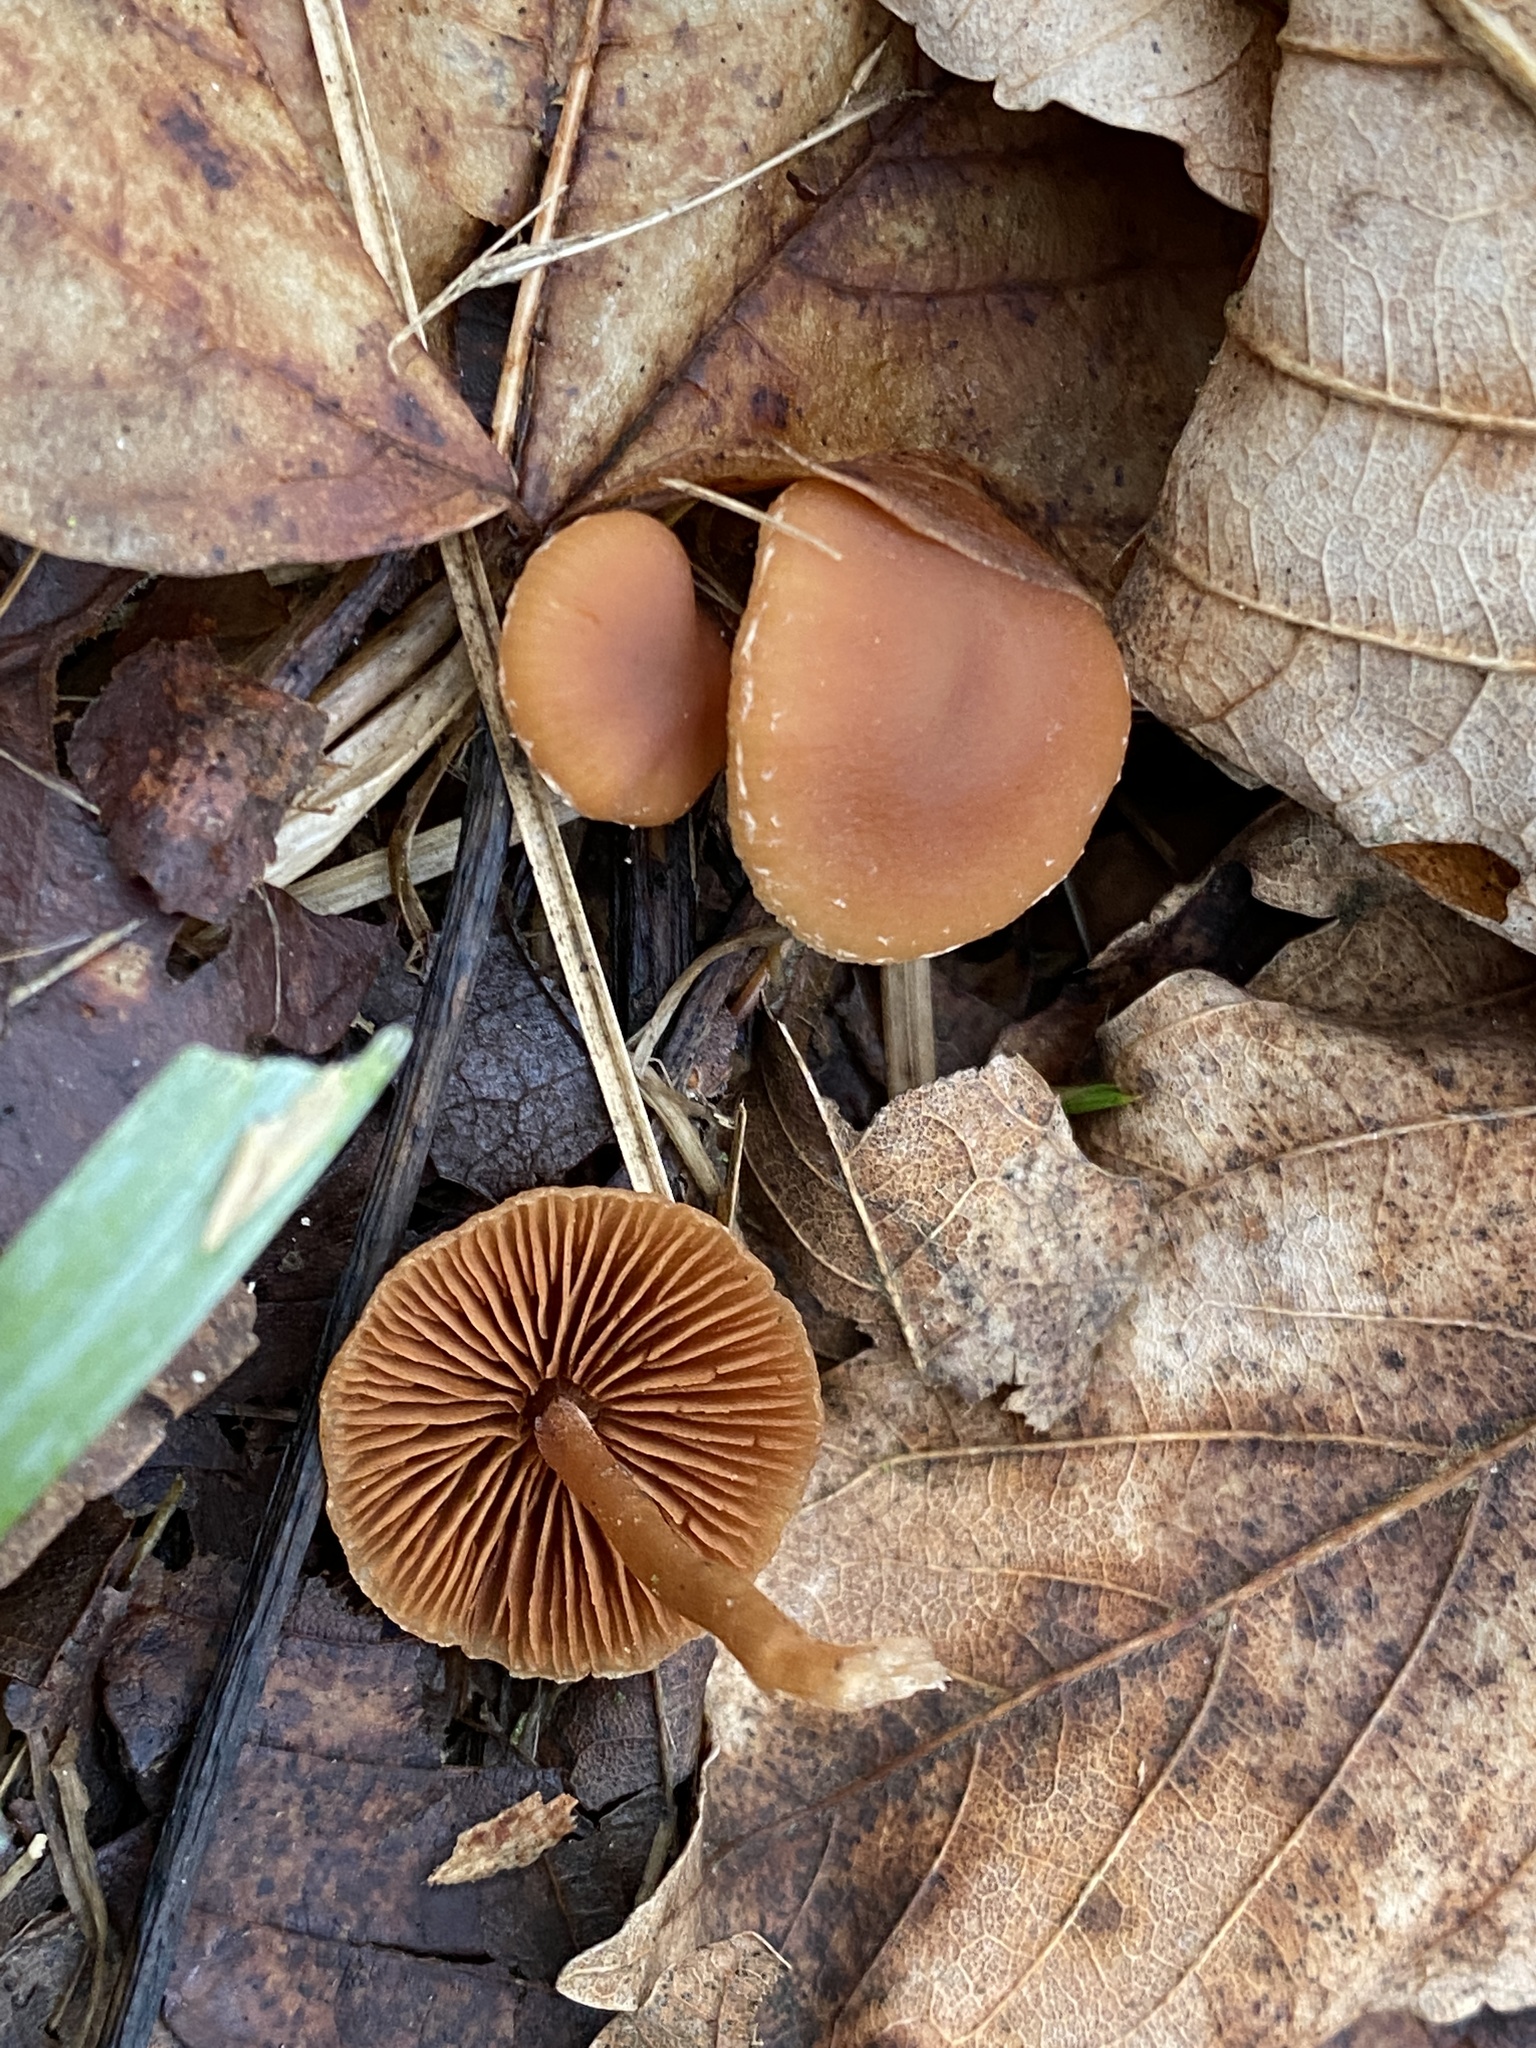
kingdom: Fungi
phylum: Basidiomycota
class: Agaricomycetes
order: Agaricales
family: Tubariaceae
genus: Tubaria
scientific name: Tubaria furfuracea
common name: Scurfy twiglet
